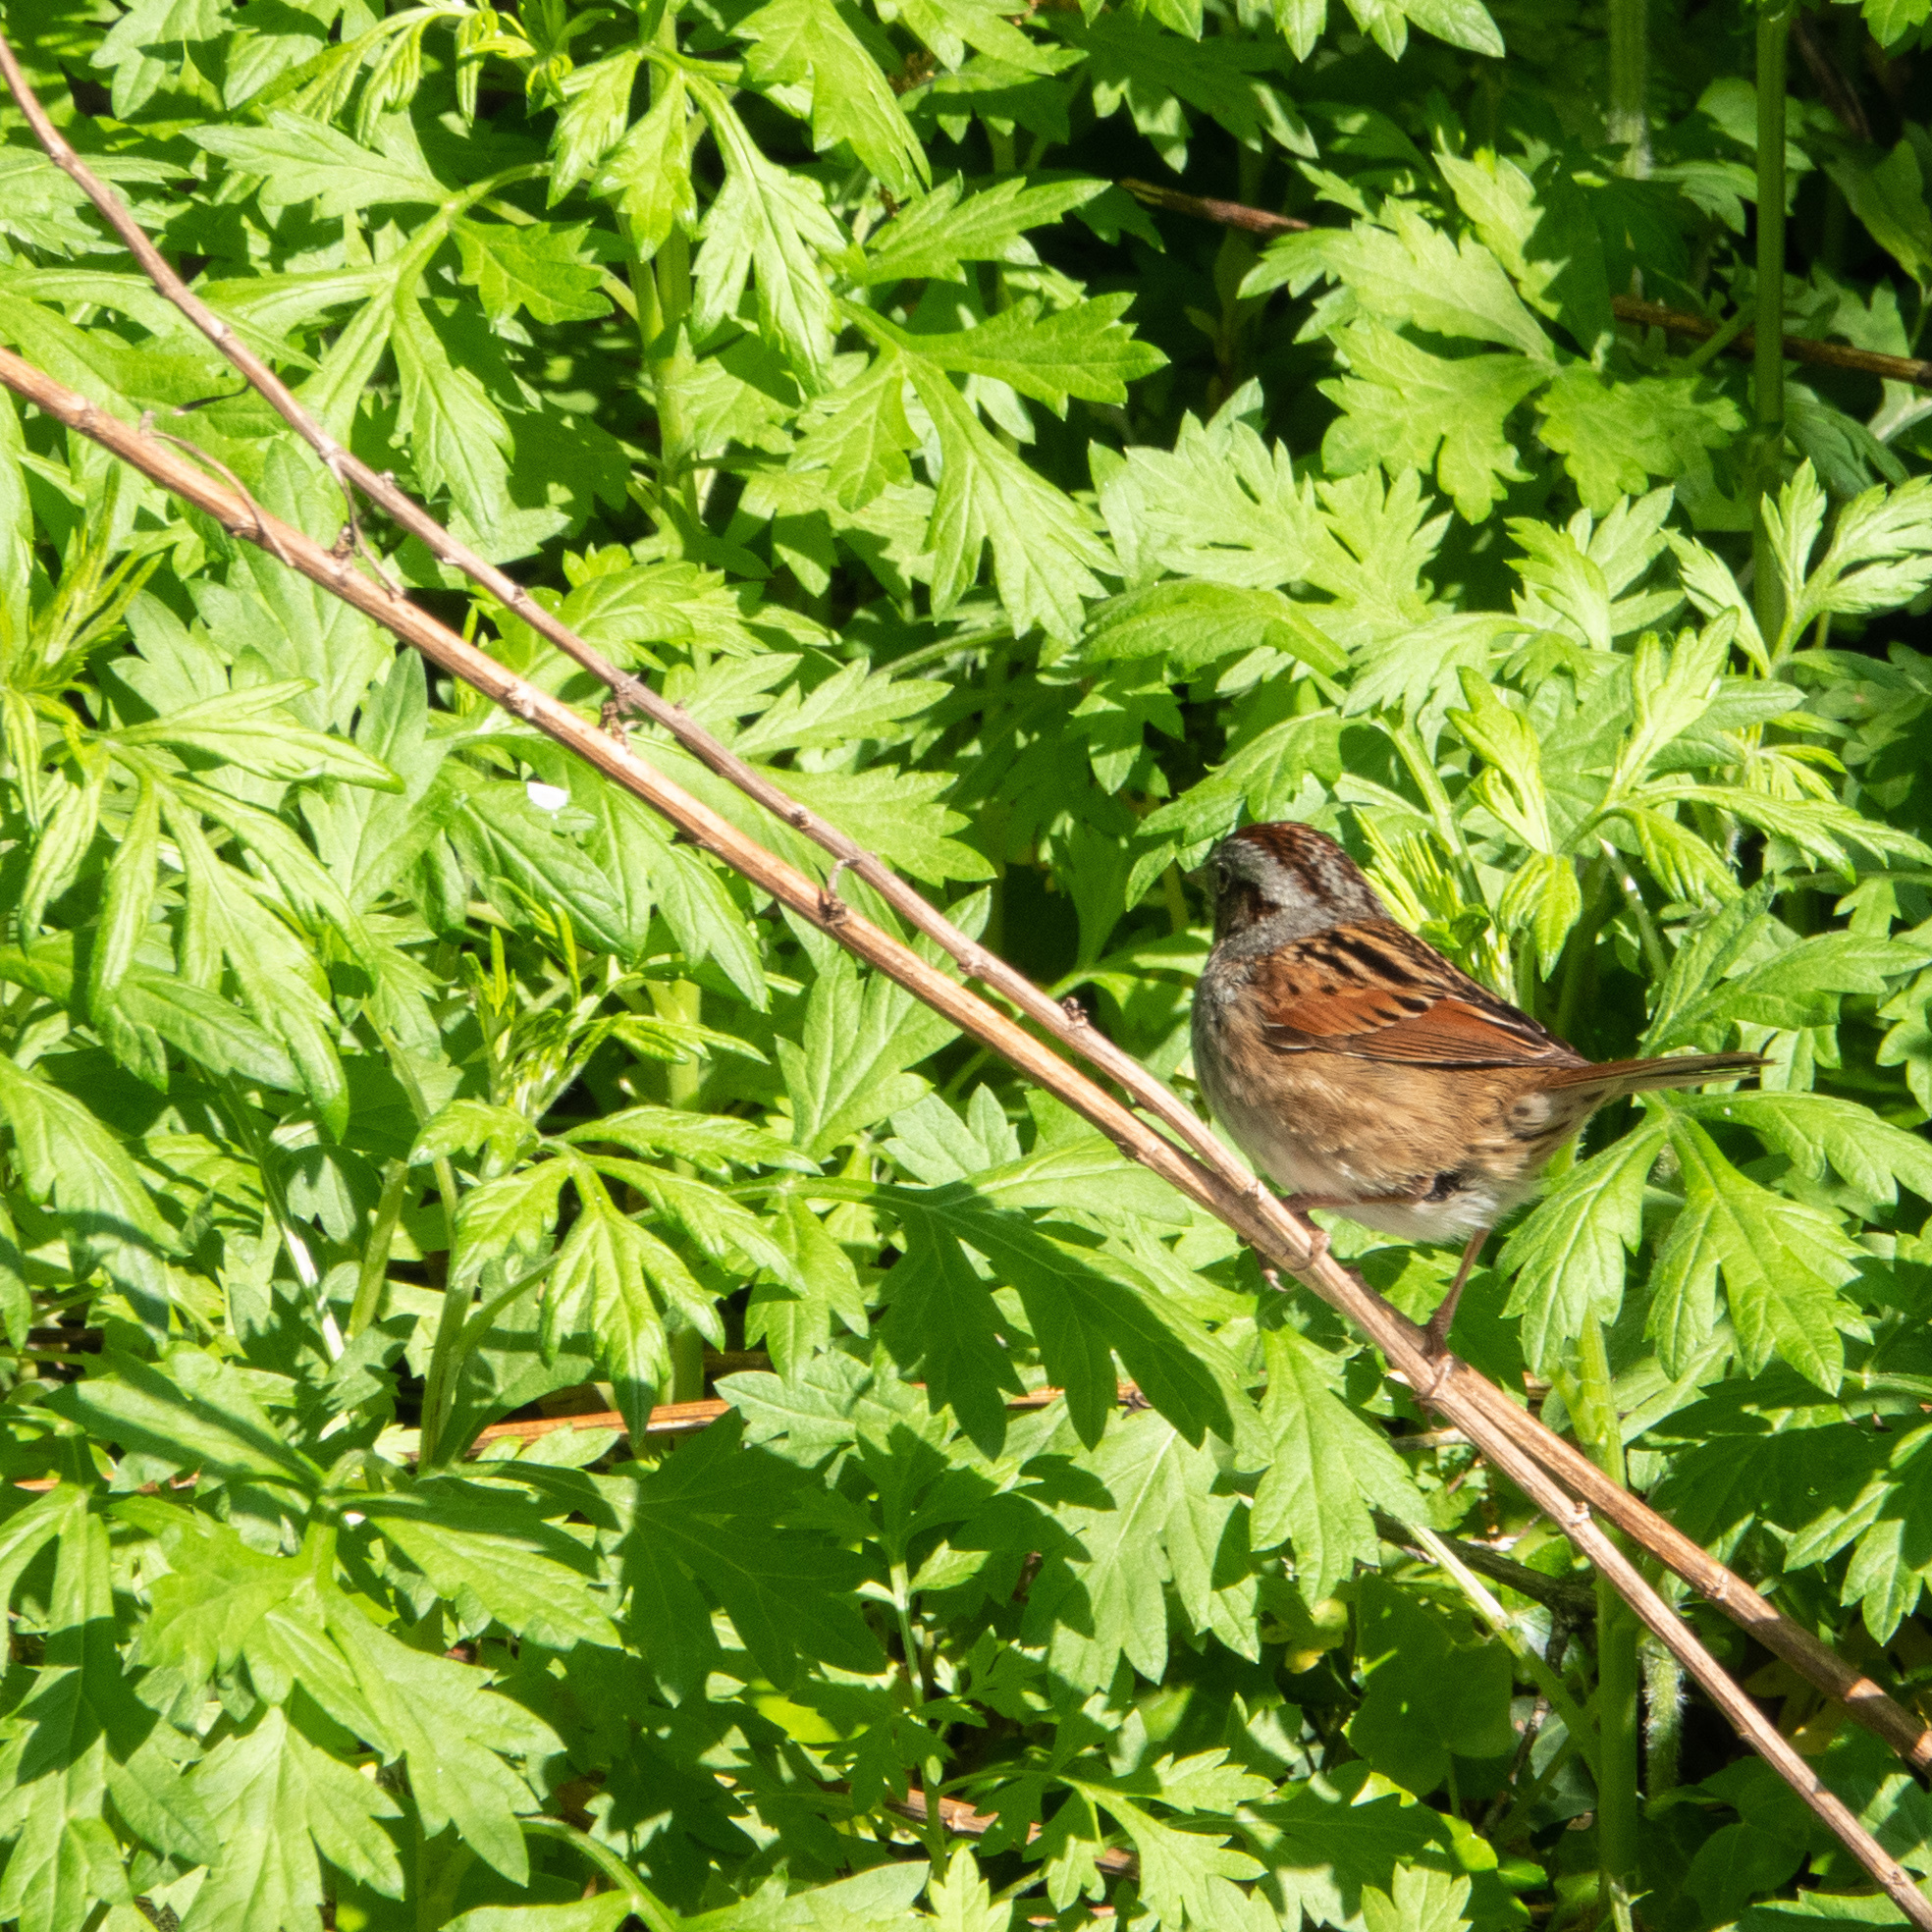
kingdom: Animalia
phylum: Chordata
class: Aves
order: Passeriformes
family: Passerellidae
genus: Melospiza
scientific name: Melospiza georgiana
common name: Swamp sparrow
